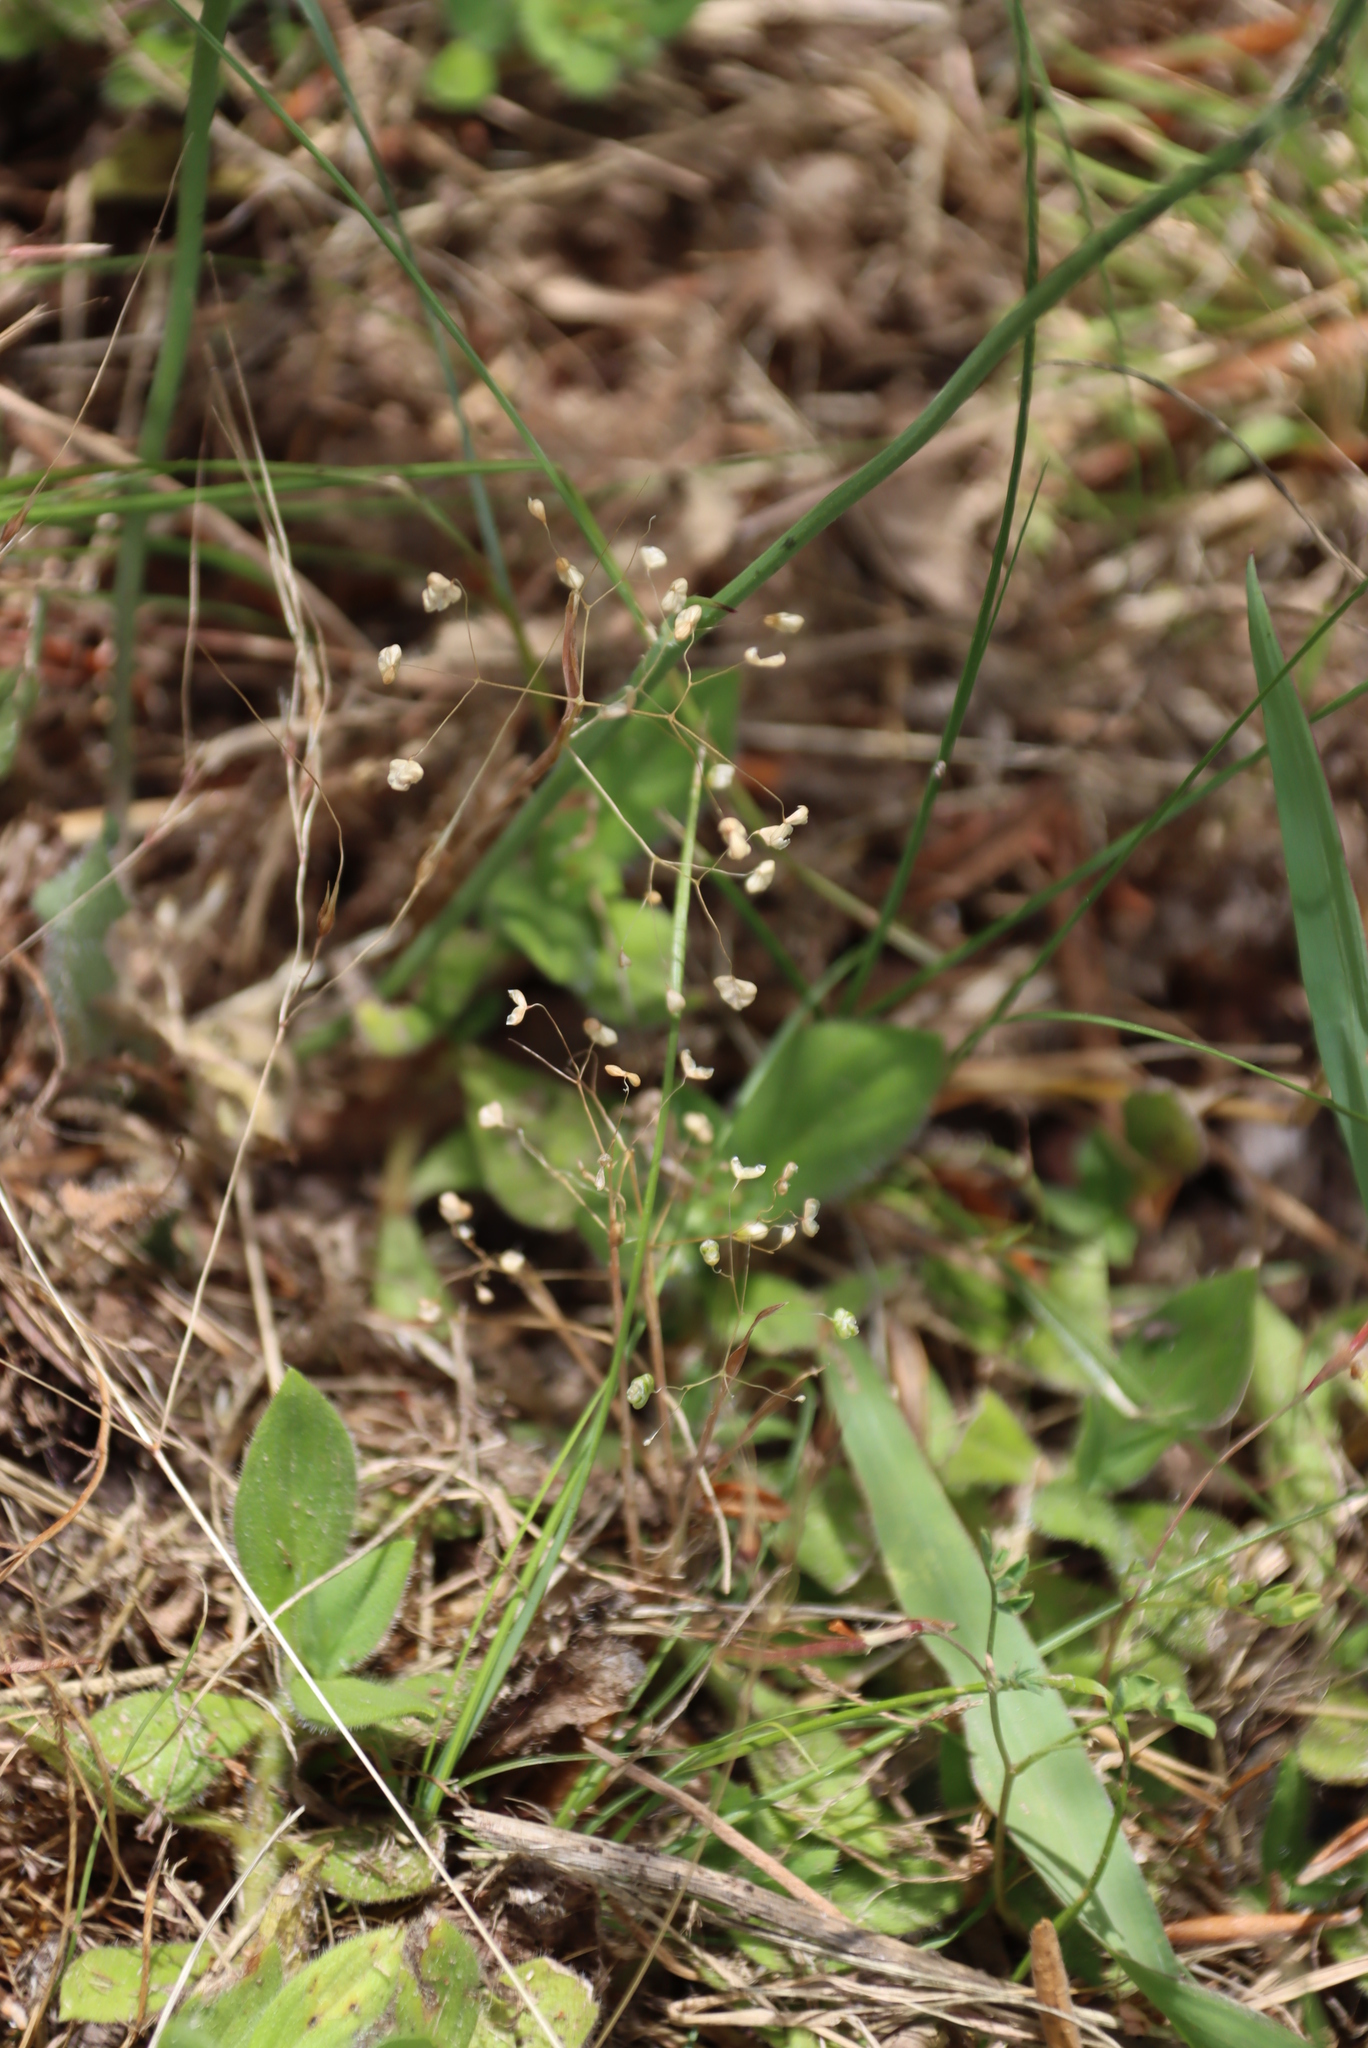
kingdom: Plantae
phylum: Tracheophyta
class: Liliopsida
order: Poales
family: Poaceae
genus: Briza
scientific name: Briza minor
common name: Lesser quaking-grass
